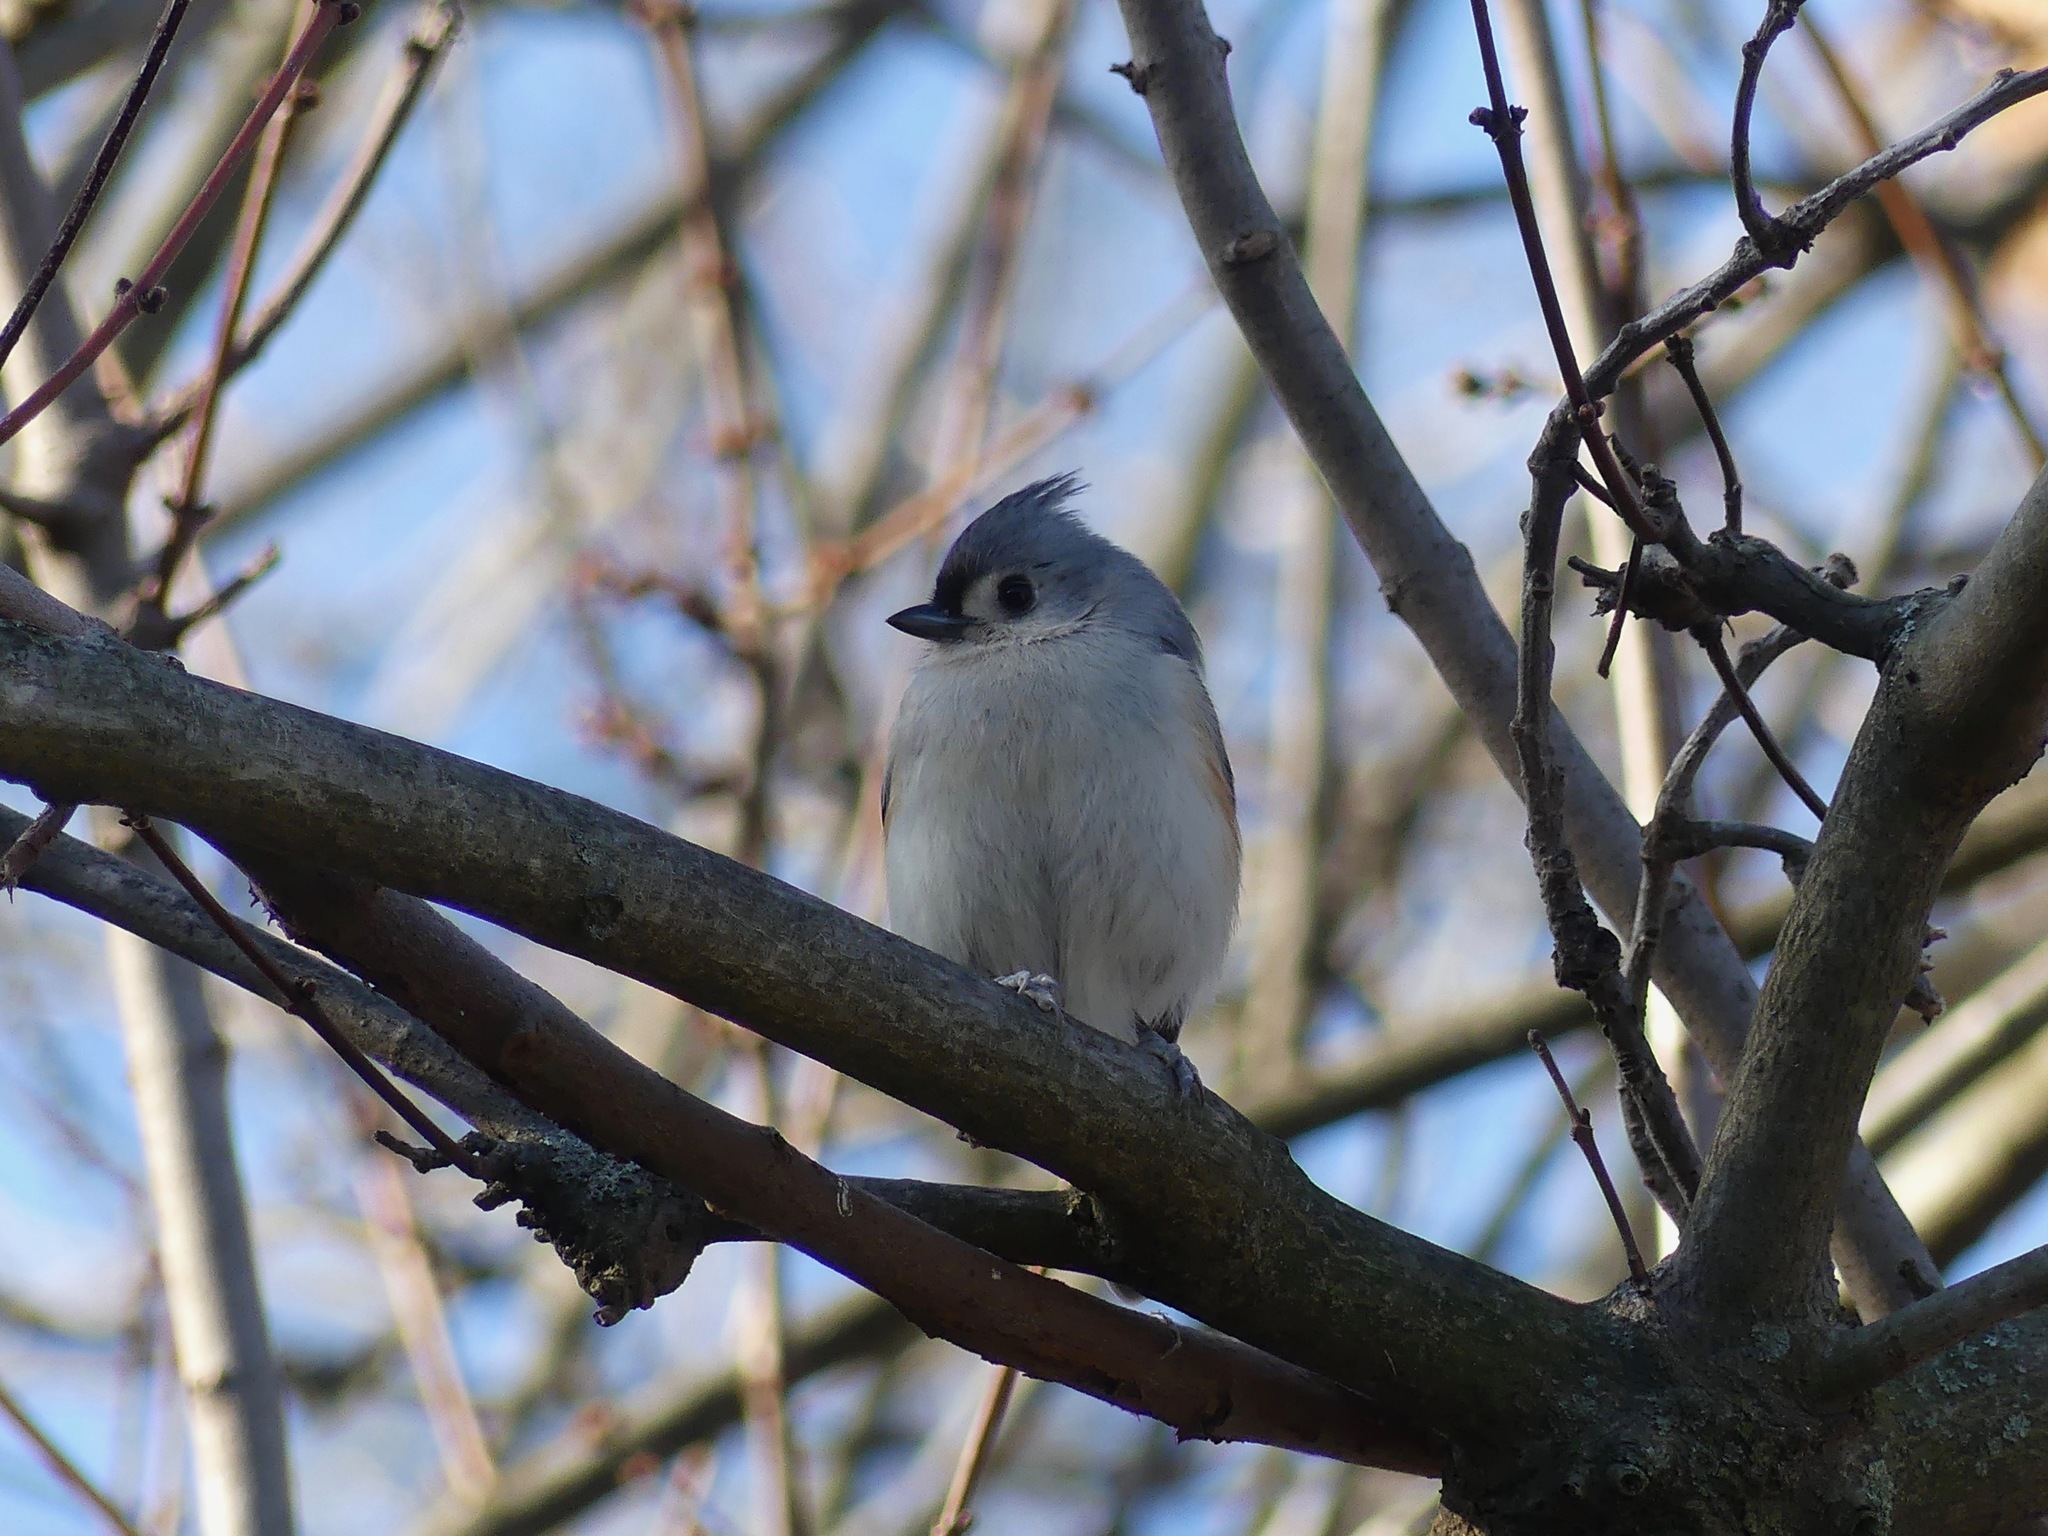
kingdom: Animalia
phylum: Chordata
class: Aves
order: Passeriformes
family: Paridae
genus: Baeolophus
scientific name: Baeolophus bicolor
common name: Tufted titmouse
